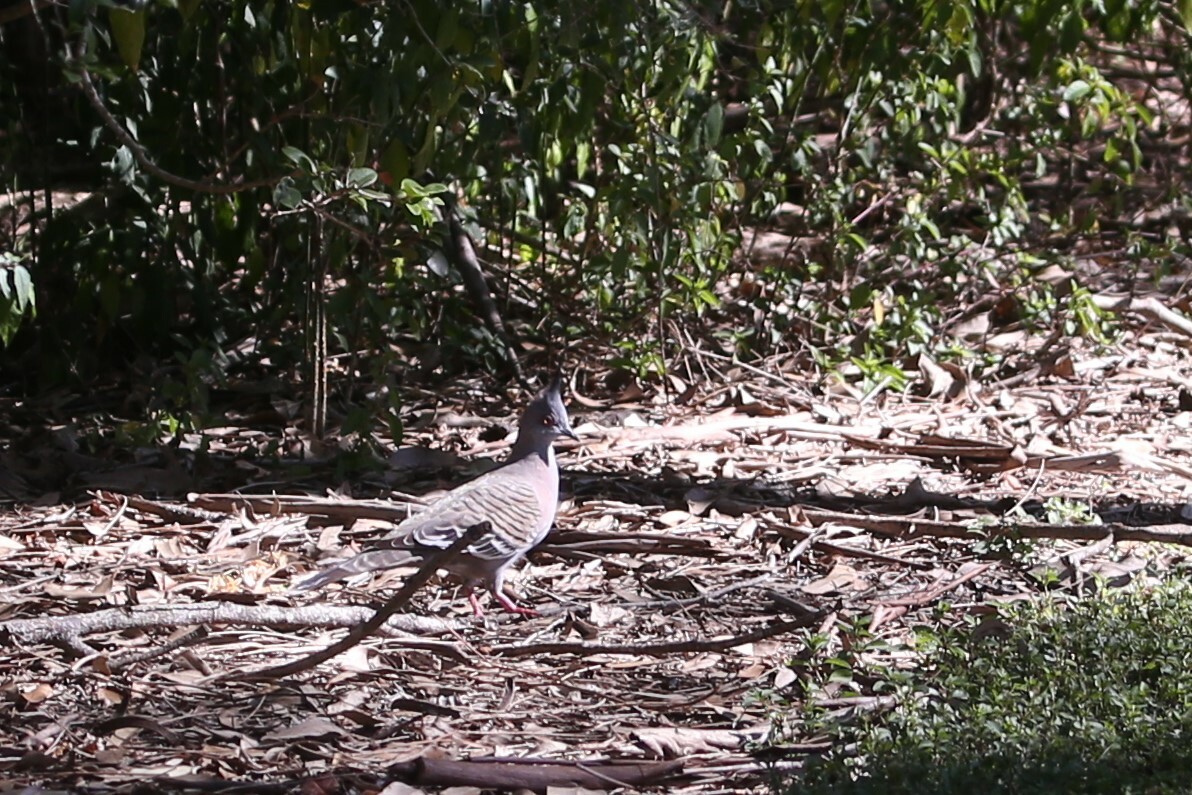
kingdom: Animalia
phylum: Chordata
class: Aves
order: Columbiformes
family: Columbidae
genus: Ocyphaps
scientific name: Ocyphaps lophotes
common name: Crested pigeon
